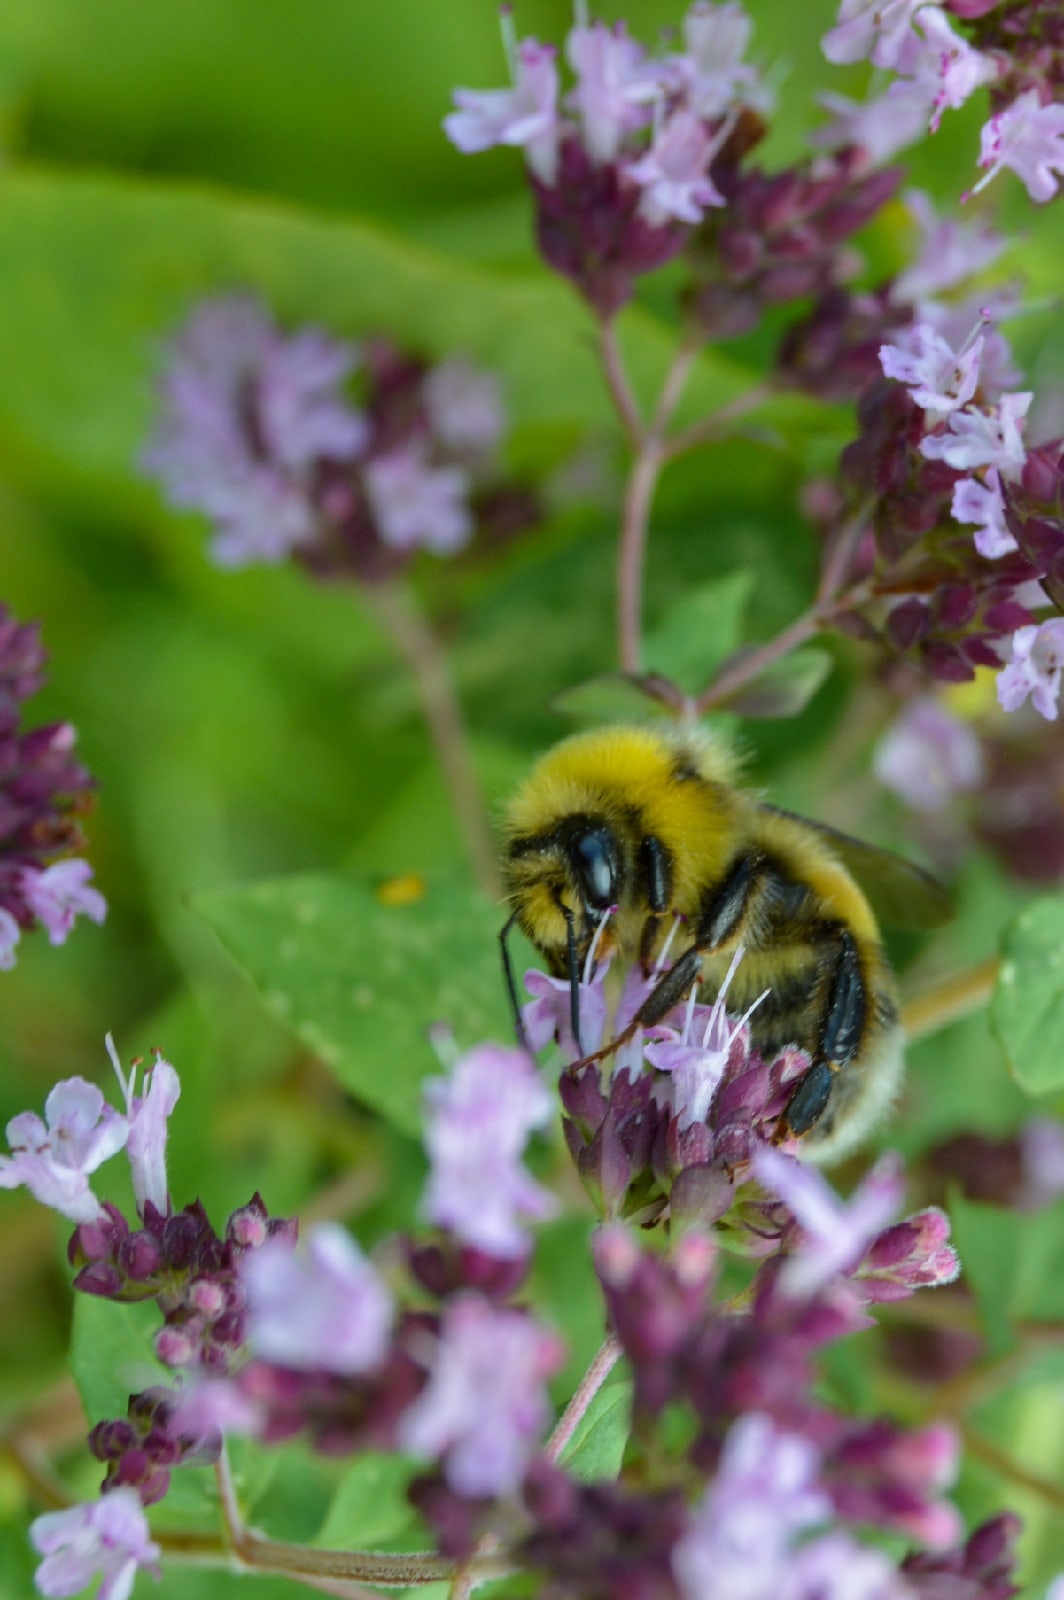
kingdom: Animalia
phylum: Arthropoda
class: Insecta
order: Hymenoptera
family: Apidae
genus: Bombus
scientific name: Bombus lucorum
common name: White-tailed bumblebee
